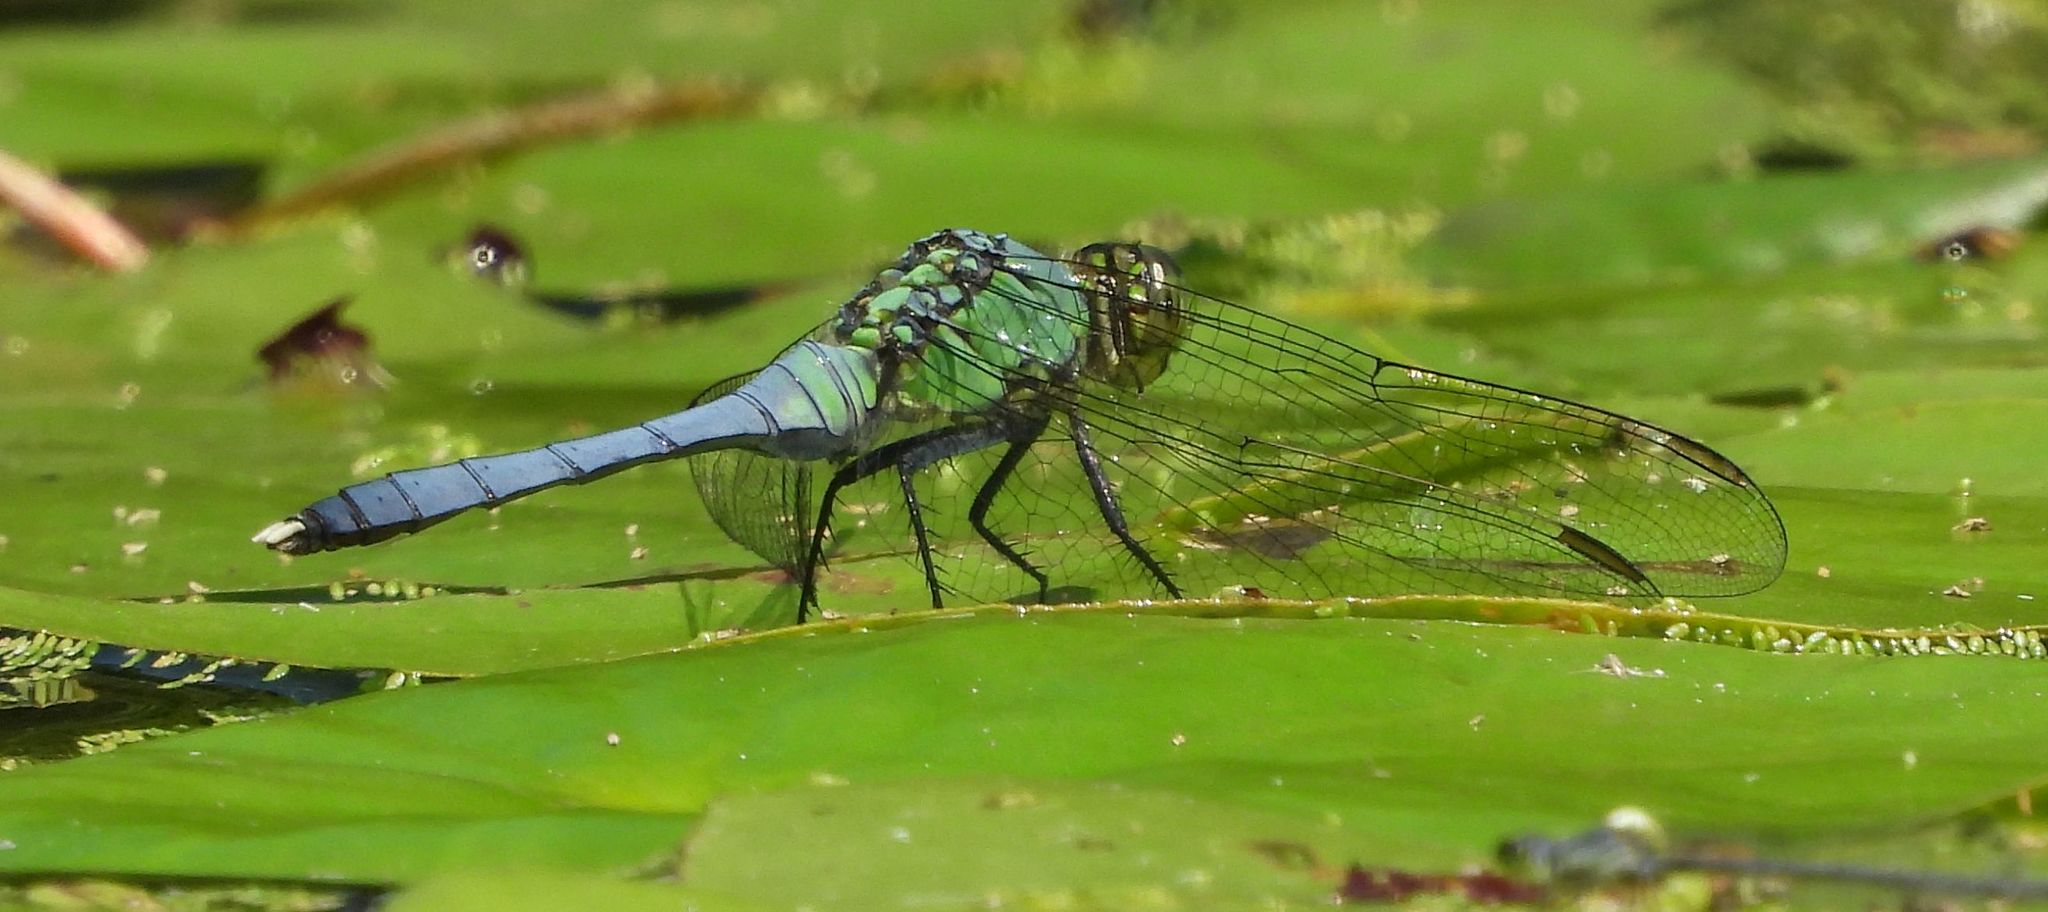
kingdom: Animalia
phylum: Arthropoda
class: Insecta
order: Odonata
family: Libellulidae
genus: Erythemis
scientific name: Erythemis simplicicollis
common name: Eastern pondhawk
